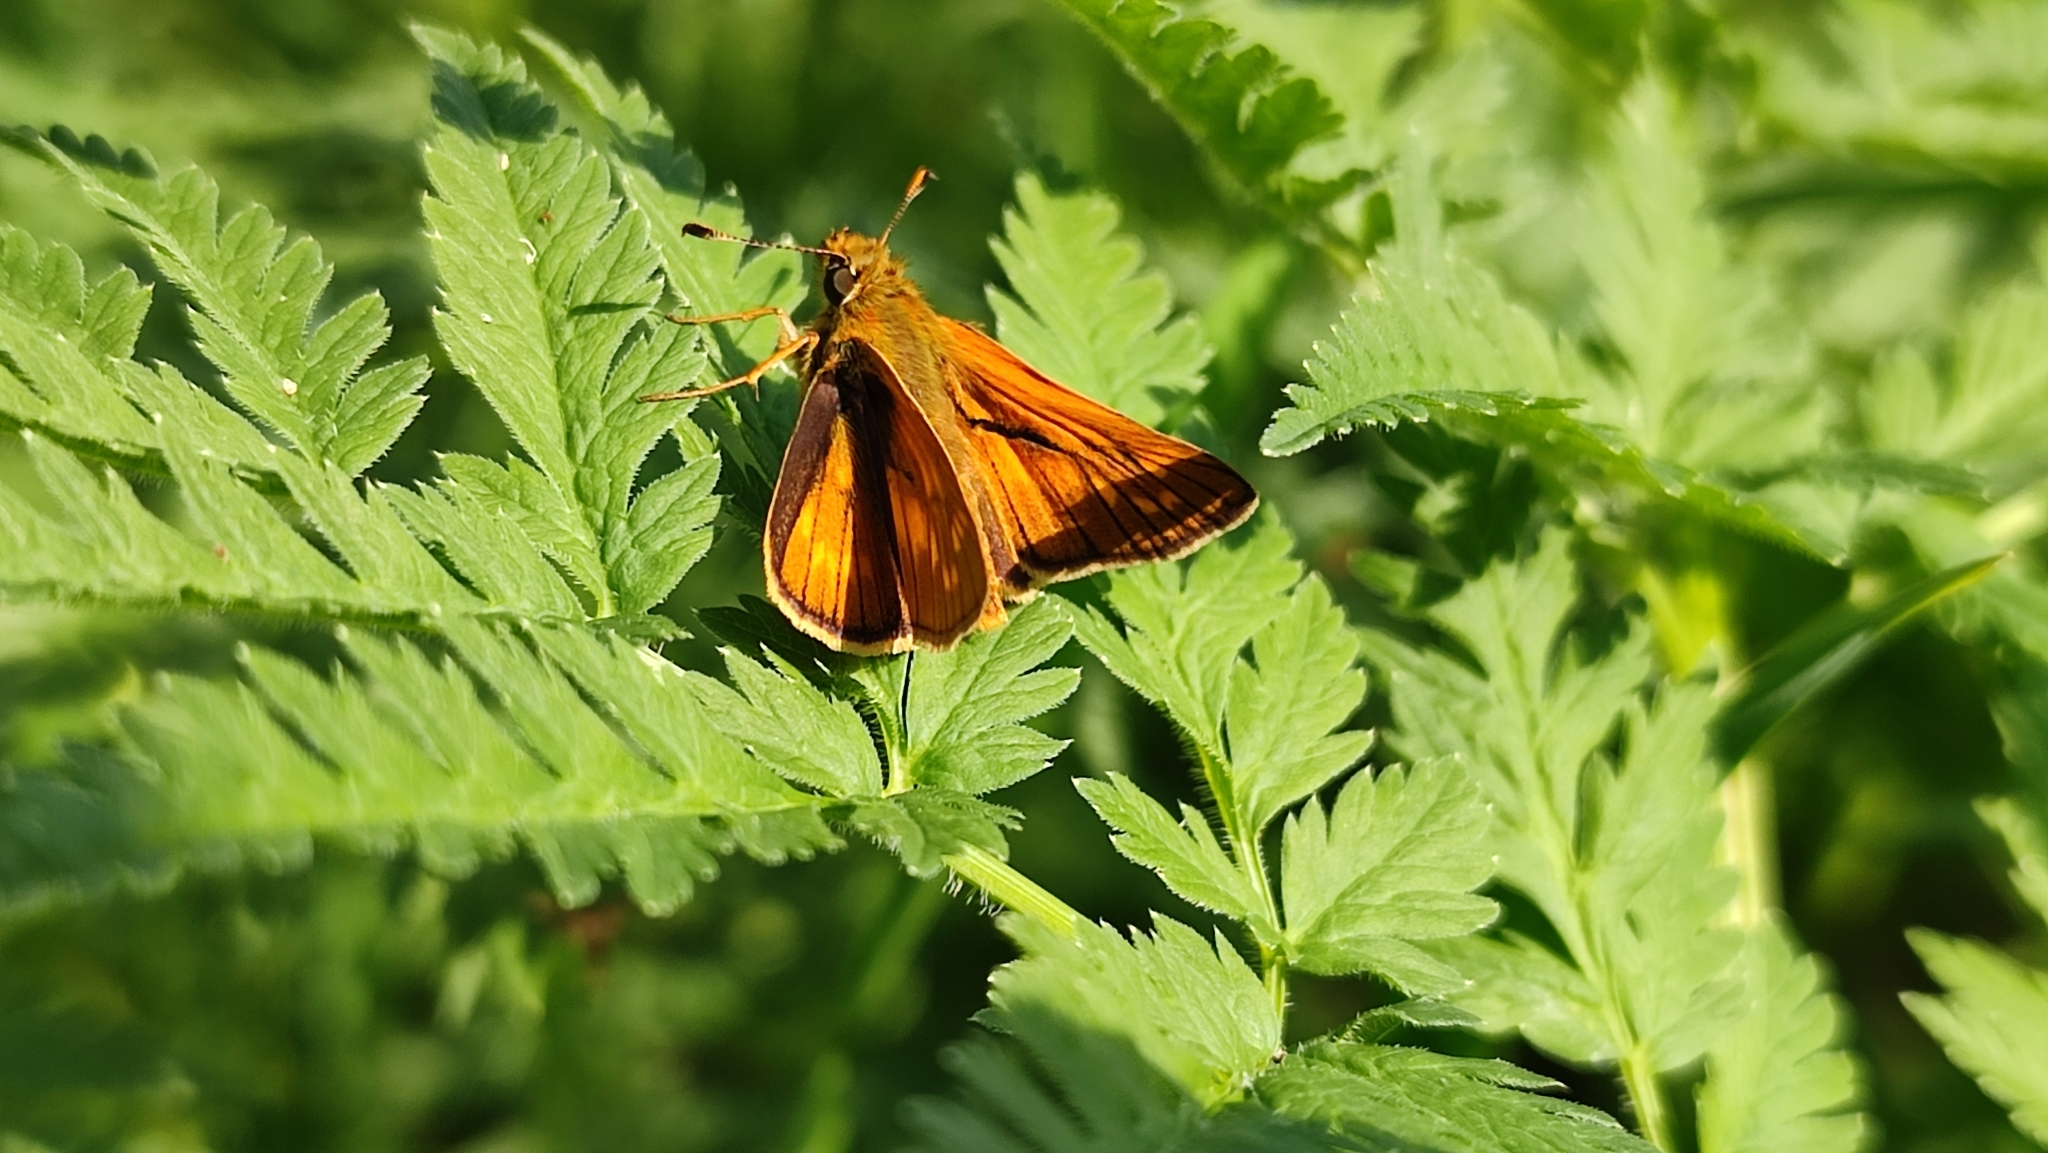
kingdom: Animalia
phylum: Arthropoda
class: Insecta
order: Lepidoptera
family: Hesperiidae
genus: Ochlodes
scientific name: Ochlodes venata
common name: Large skipper
